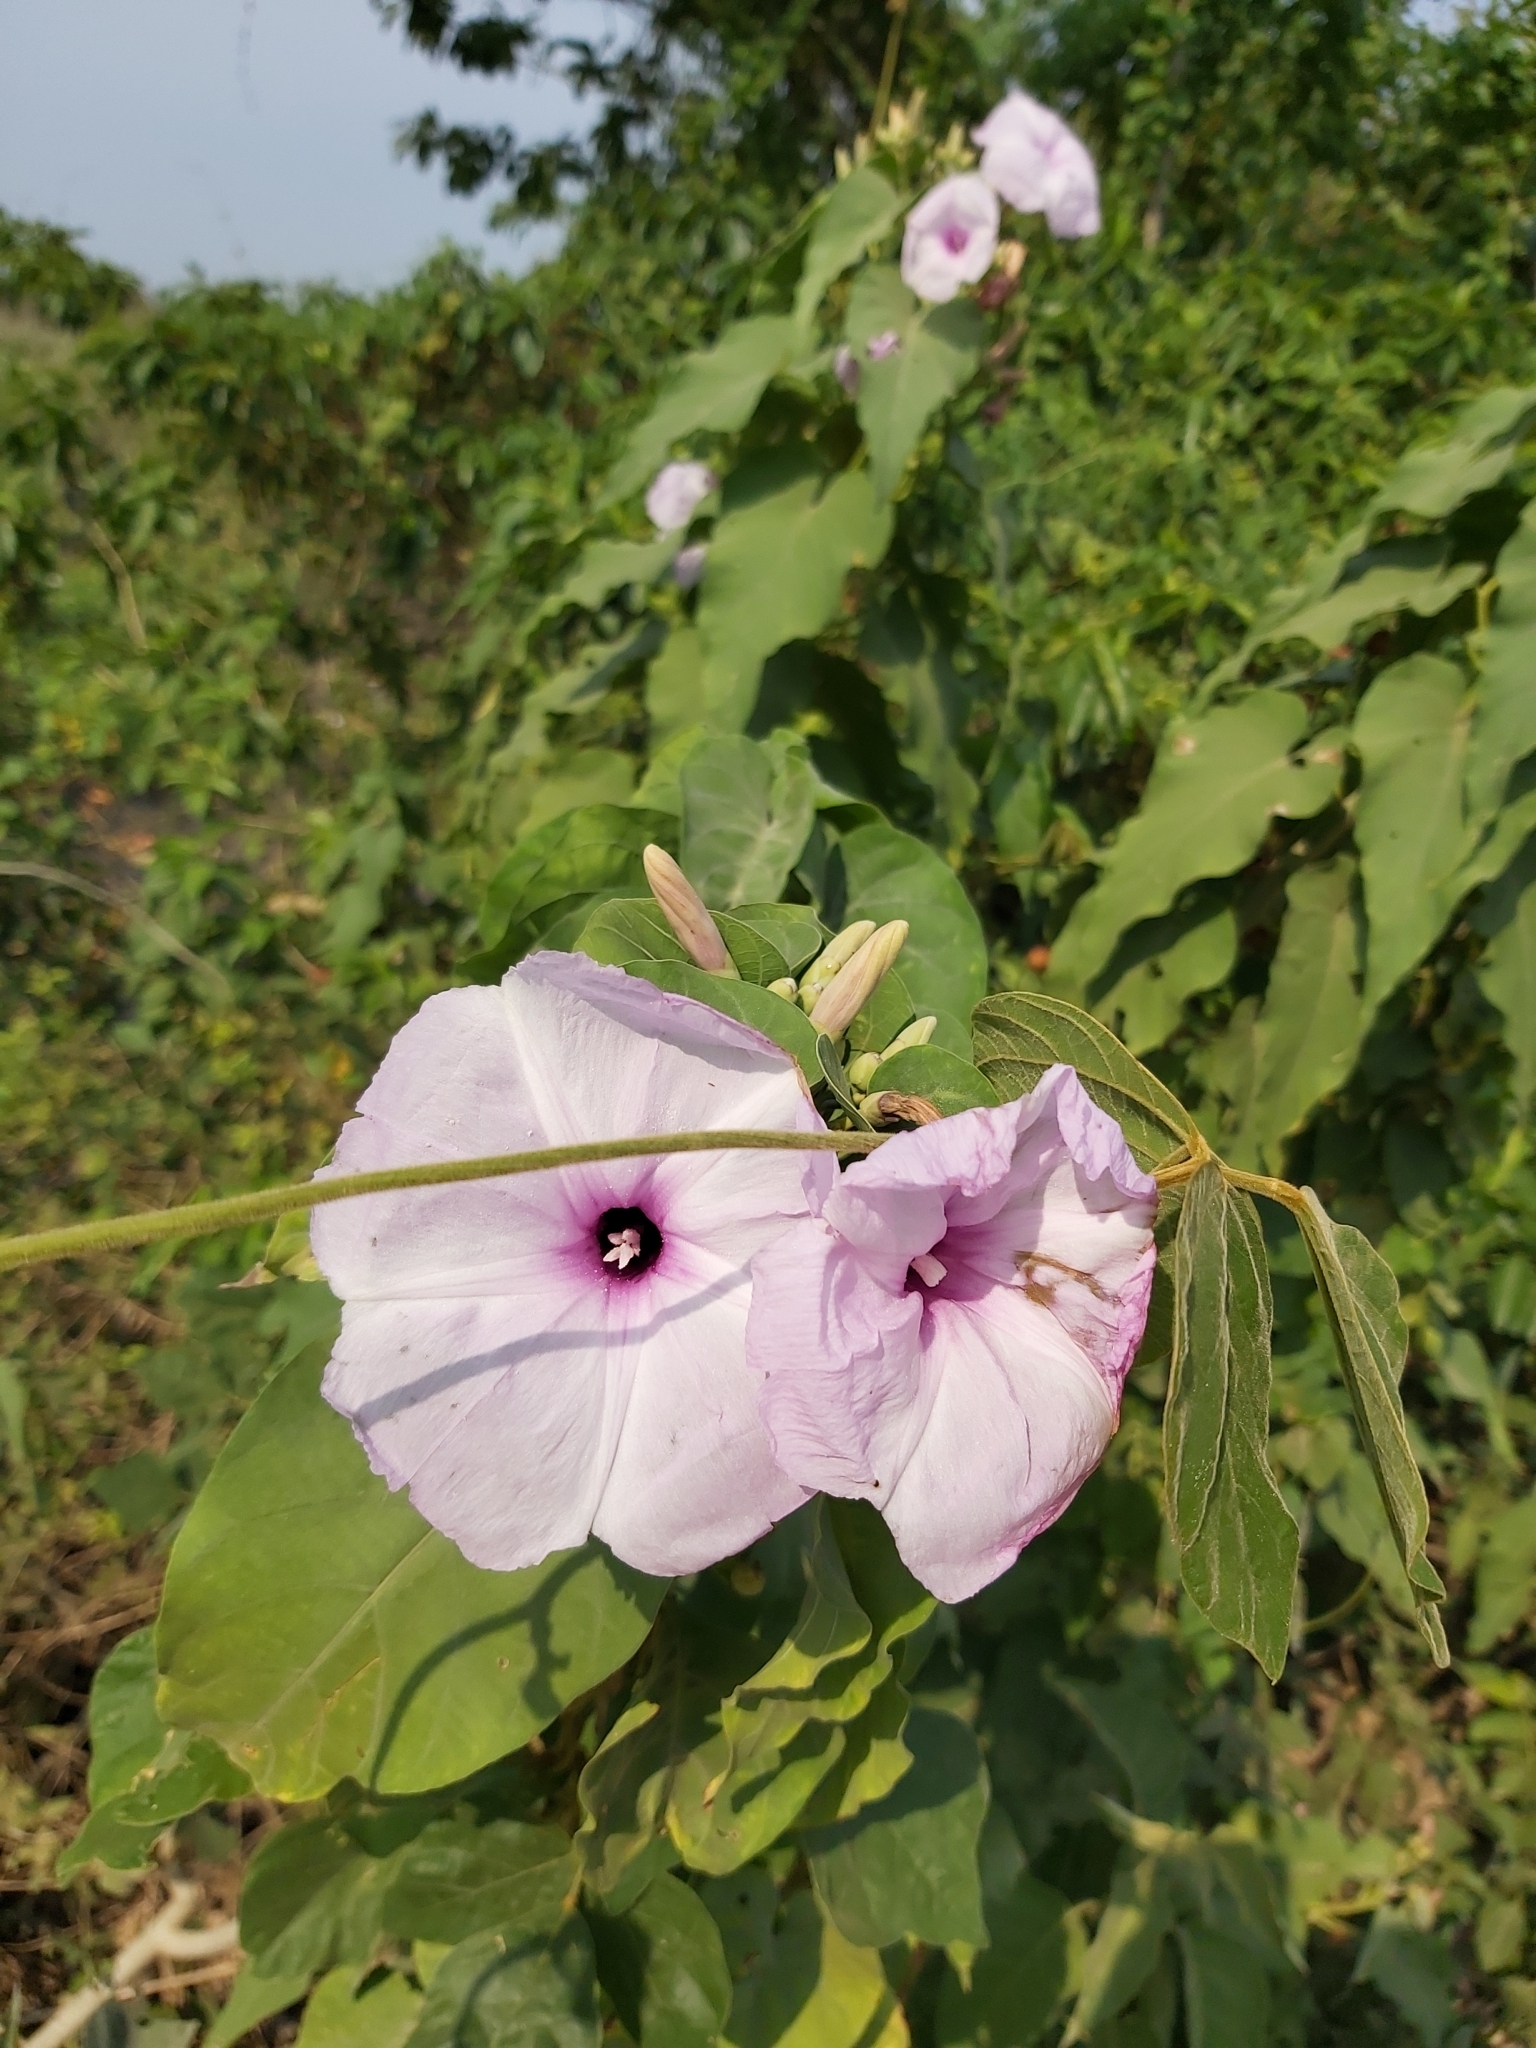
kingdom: Plantae
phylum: Tracheophyta
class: Magnoliopsida
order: Solanales
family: Convolvulaceae
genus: Ipomoea
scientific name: Ipomoea carnea
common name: Morning-glory
